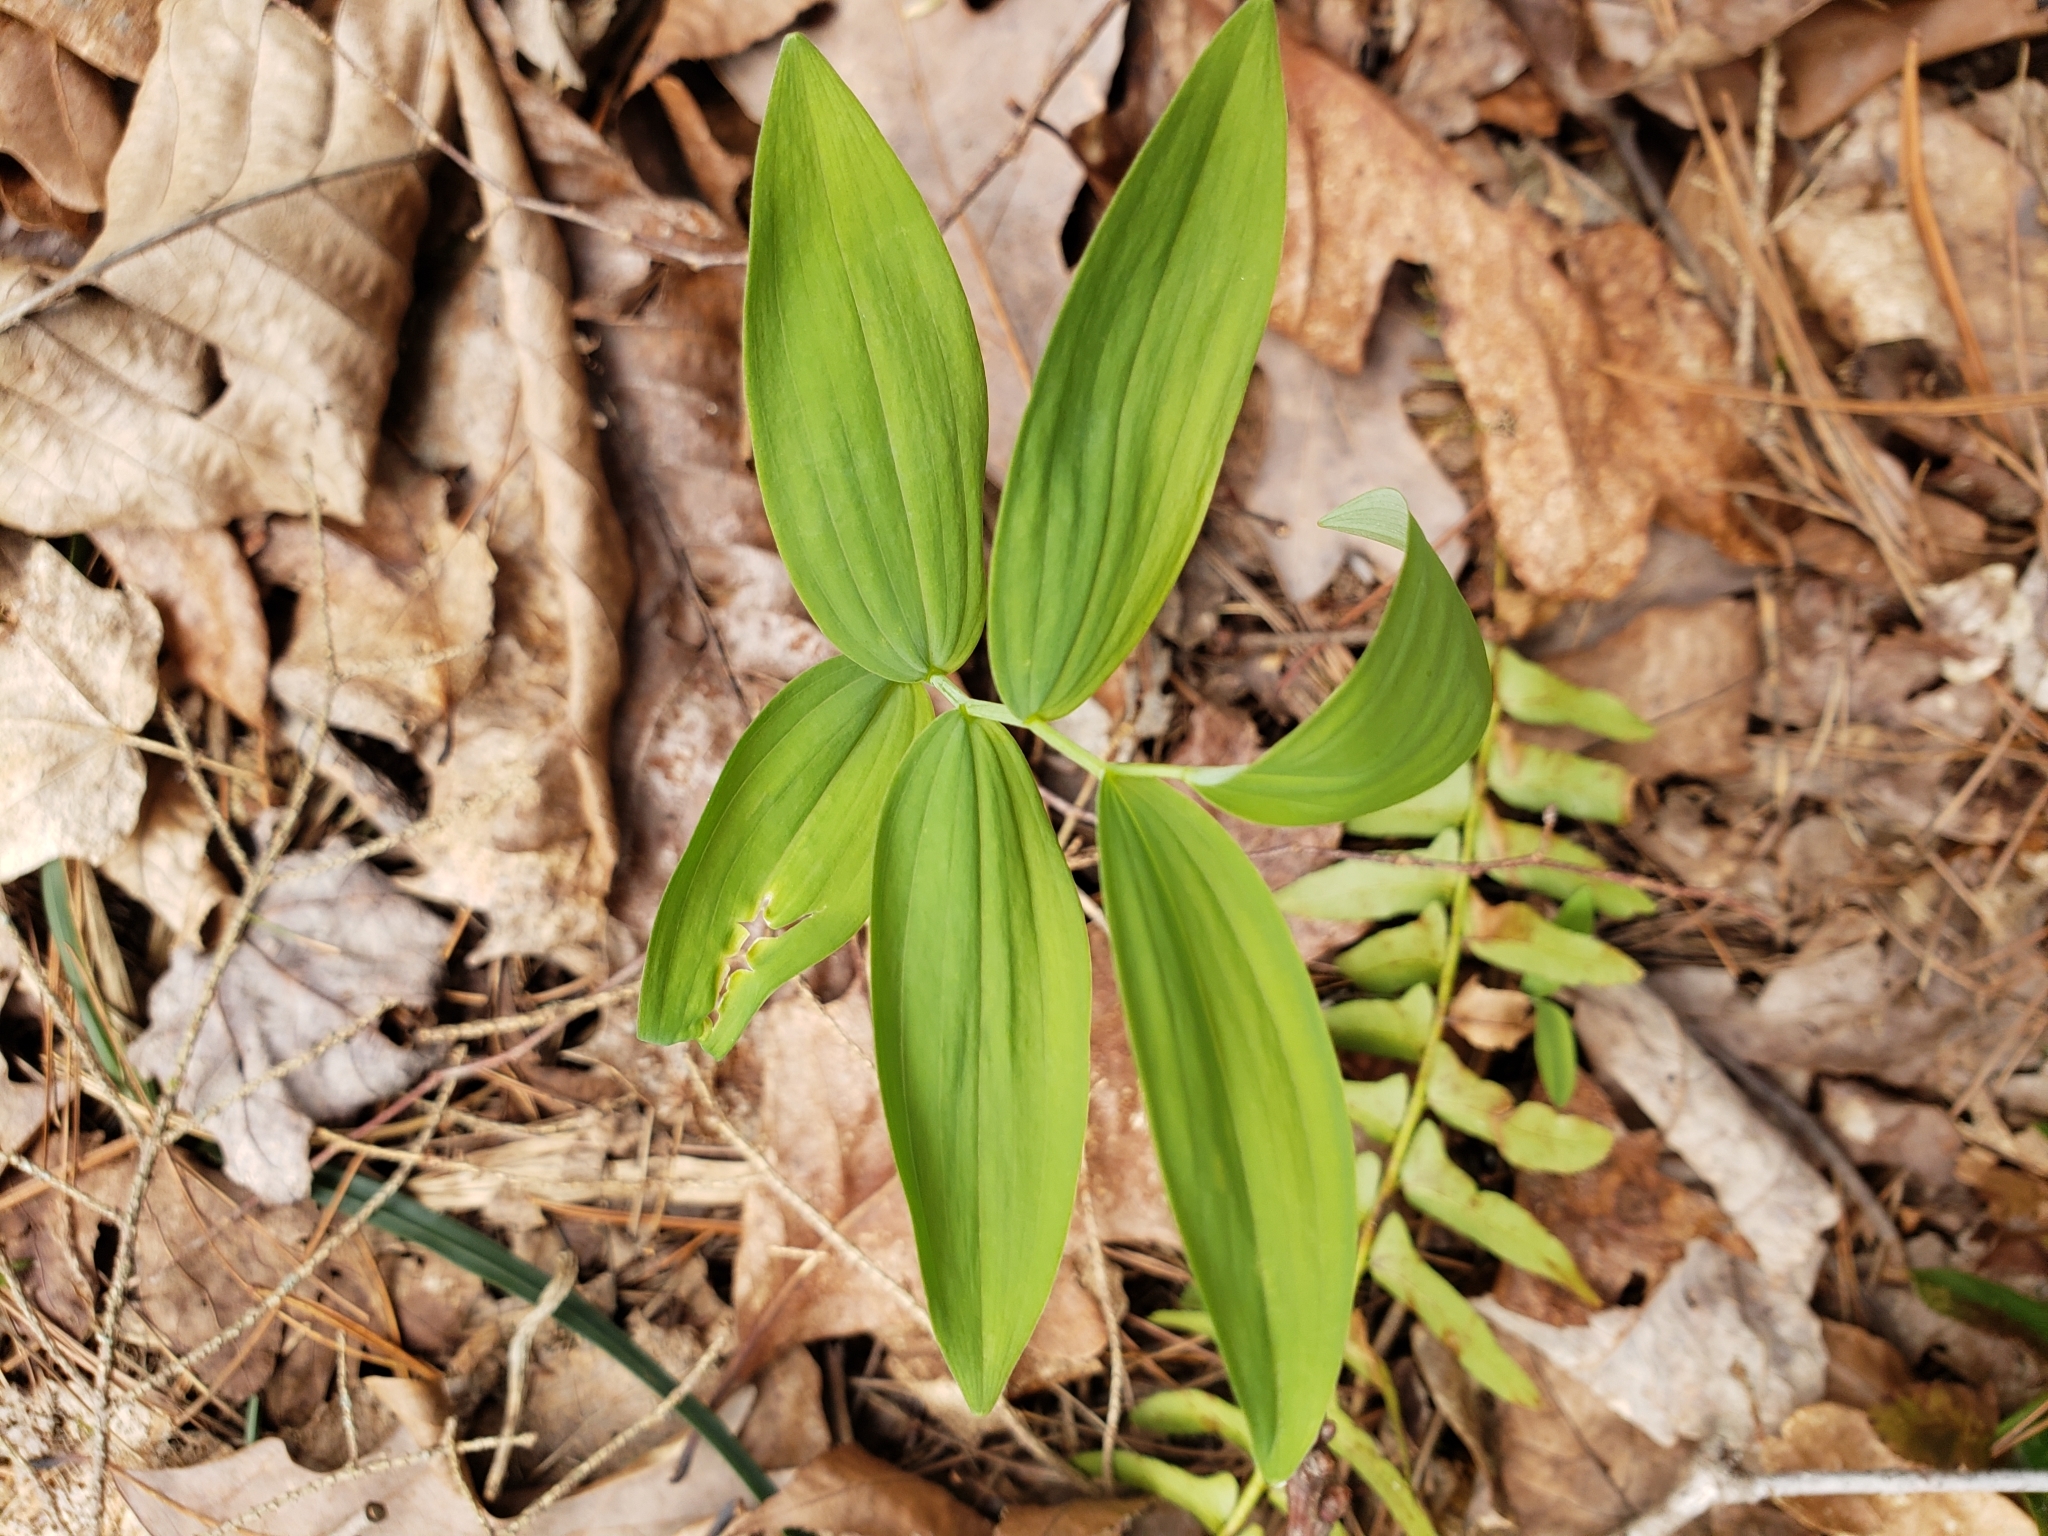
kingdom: Plantae
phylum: Tracheophyta
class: Liliopsida
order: Asparagales
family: Asparagaceae
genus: Polygonatum
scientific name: Polygonatum pubescens
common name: Downy solomon's seal
